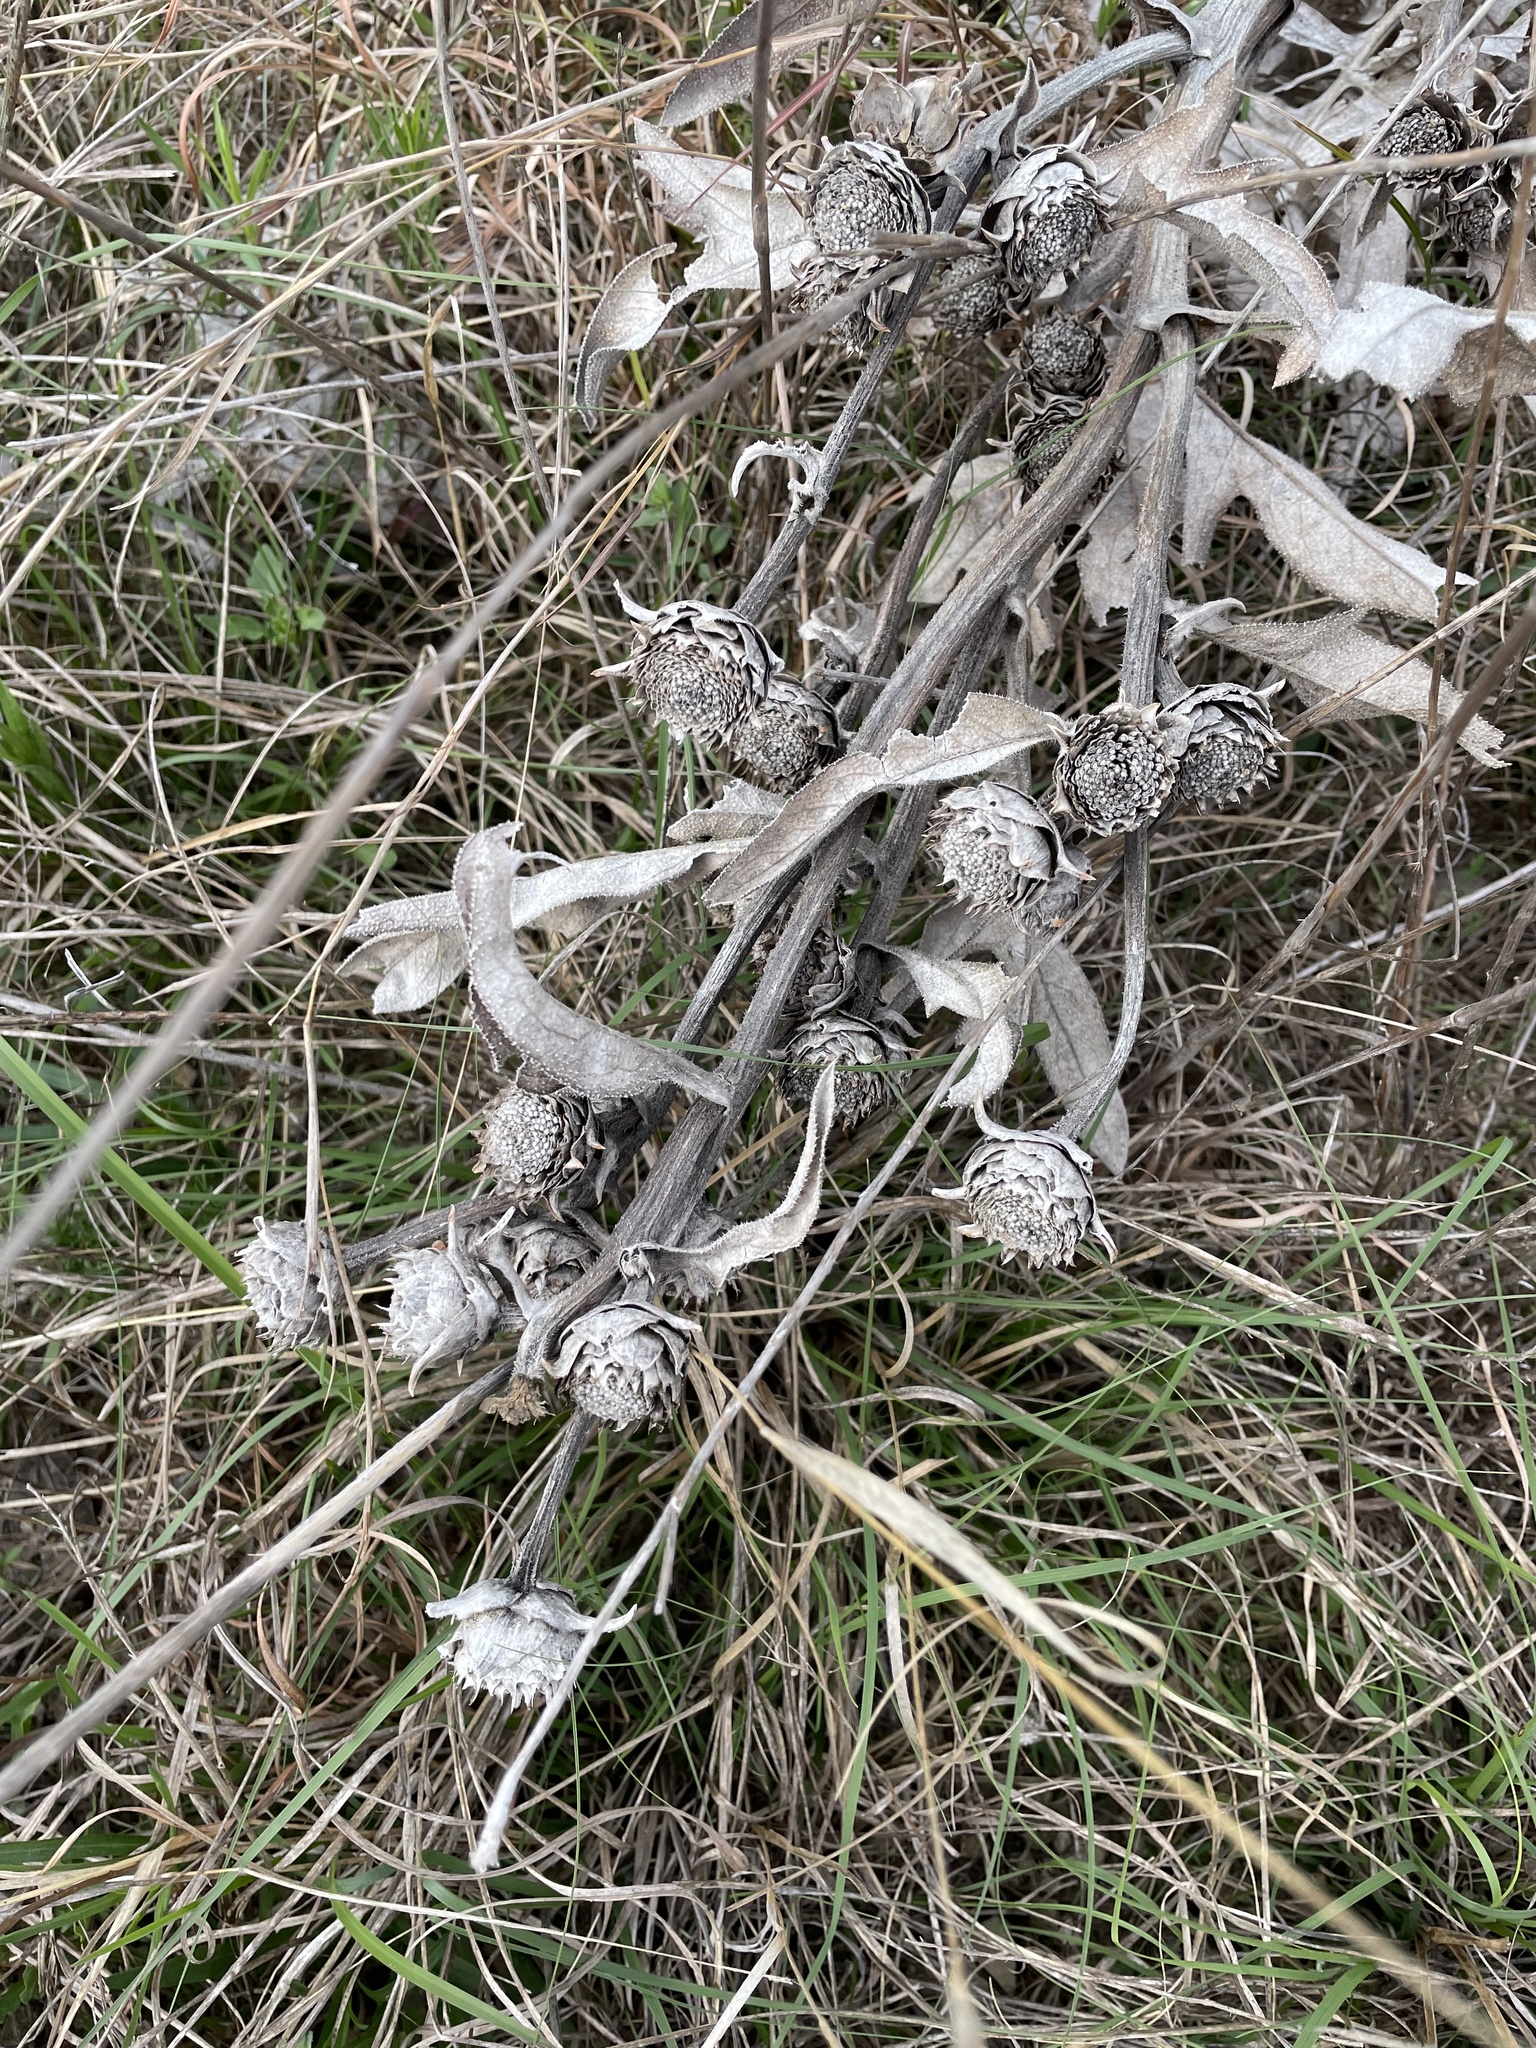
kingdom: Plantae
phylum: Tracheophyta
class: Magnoliopsida
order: Asterales
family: Asteraceae
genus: Silphium
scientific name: Silphium albiflorum
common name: White rosinweed
